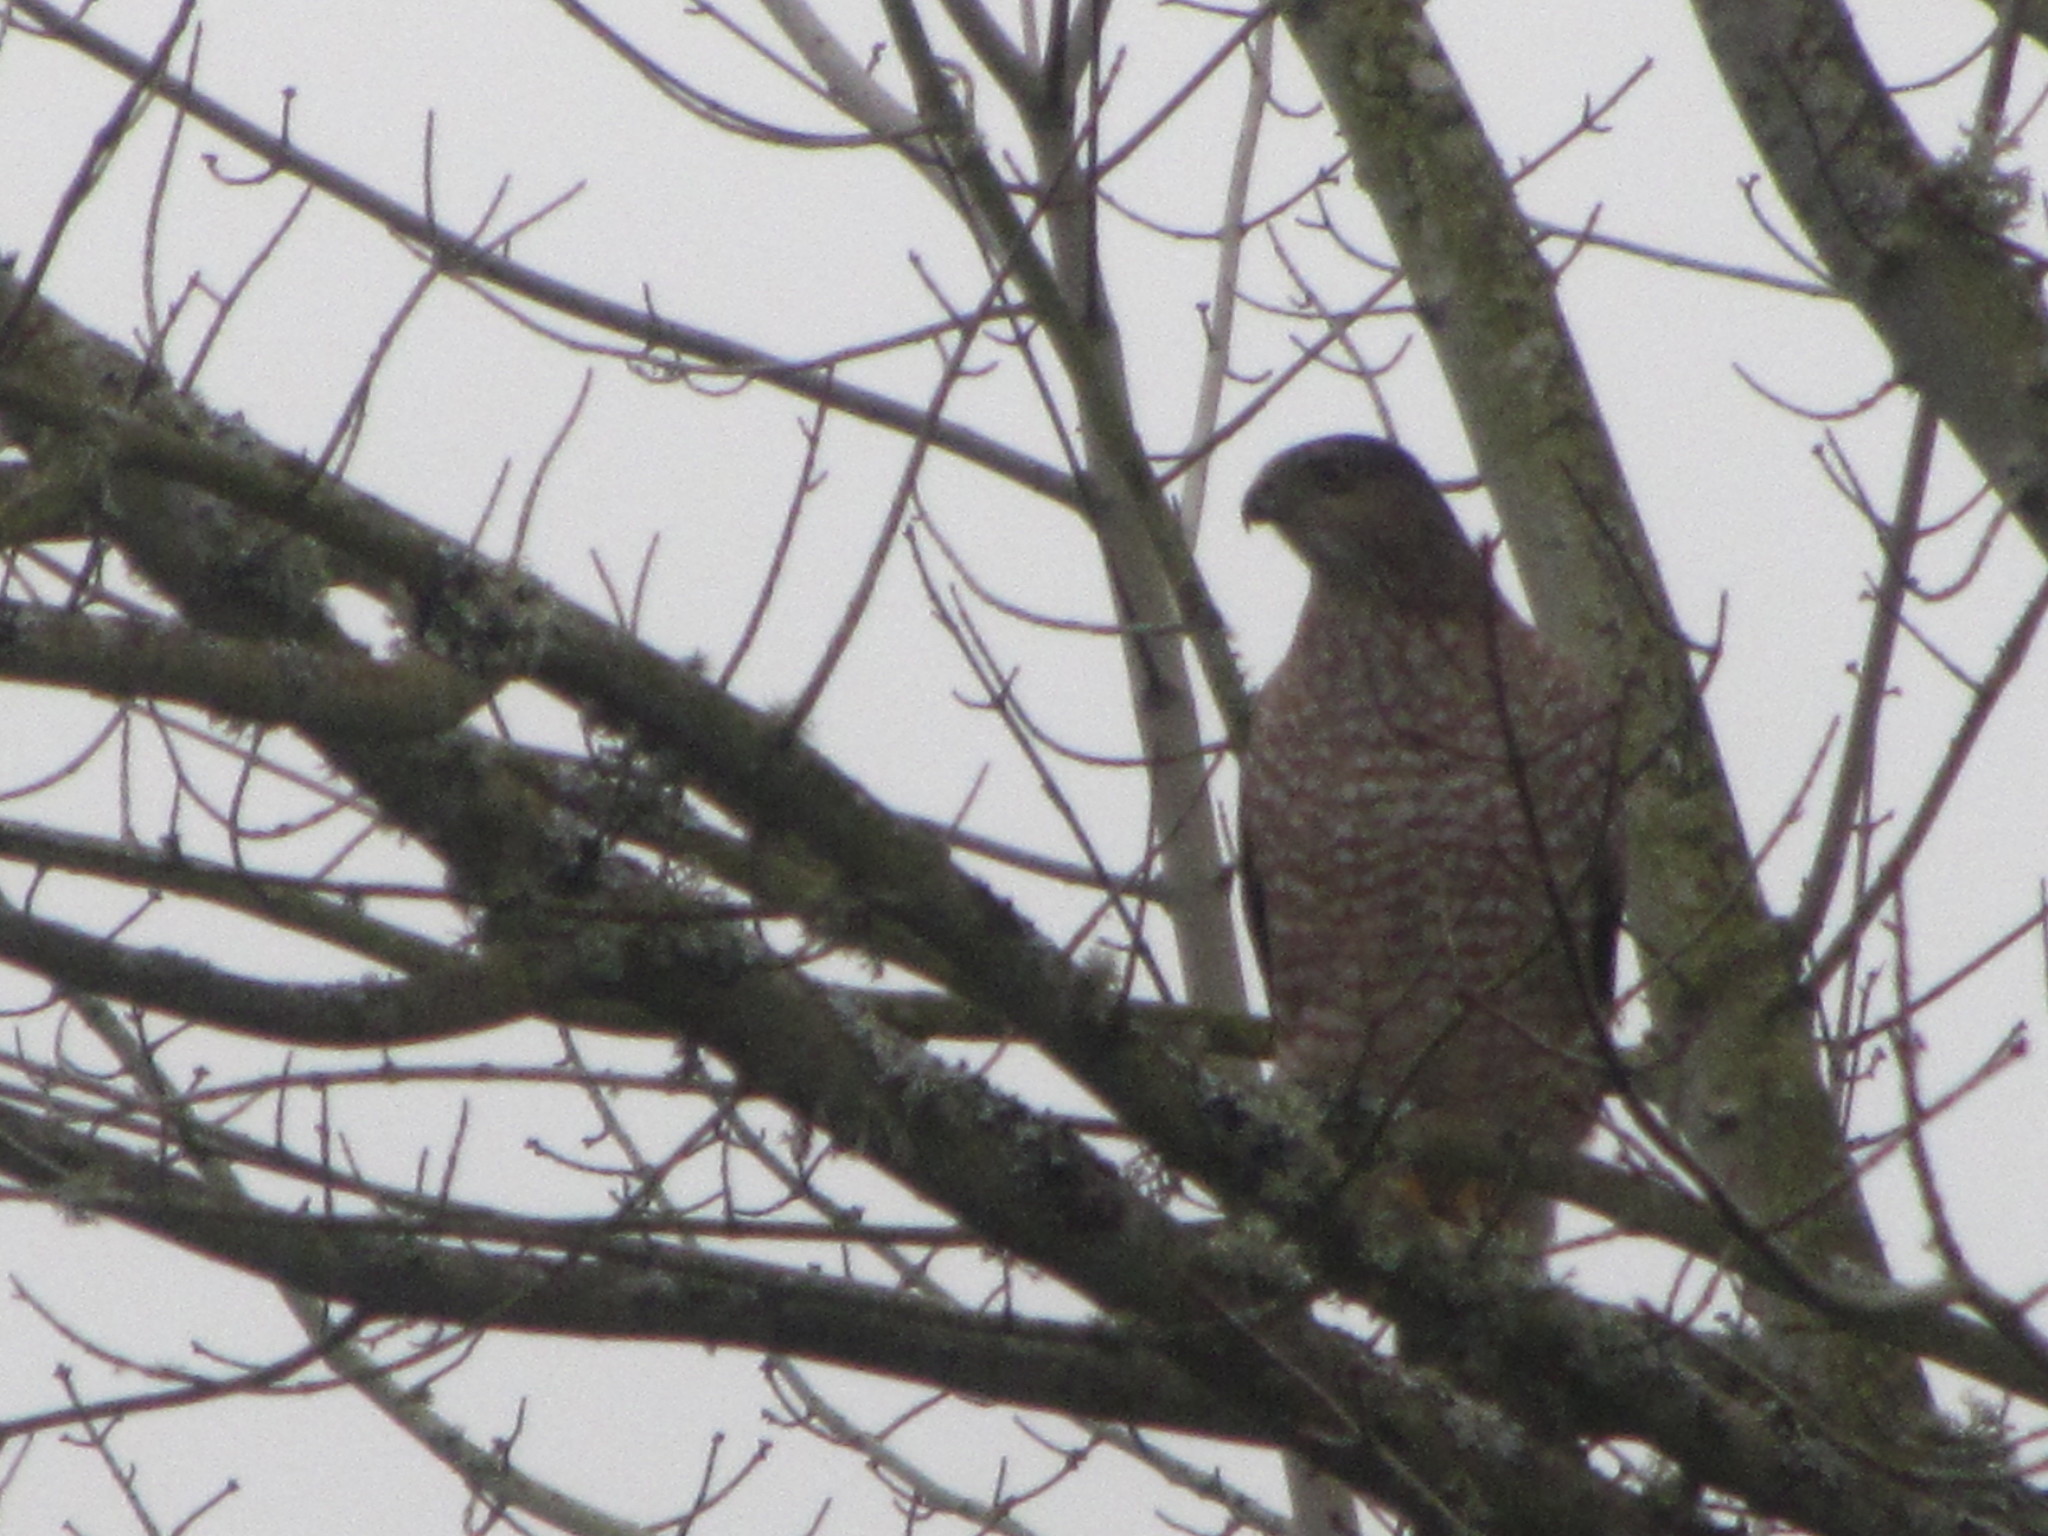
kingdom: Animalia
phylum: Chordata
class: Aves
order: Accipitriformes
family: Accipitridae
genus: Accipiter
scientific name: Accipiter cooperii
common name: Cooper's hawk
